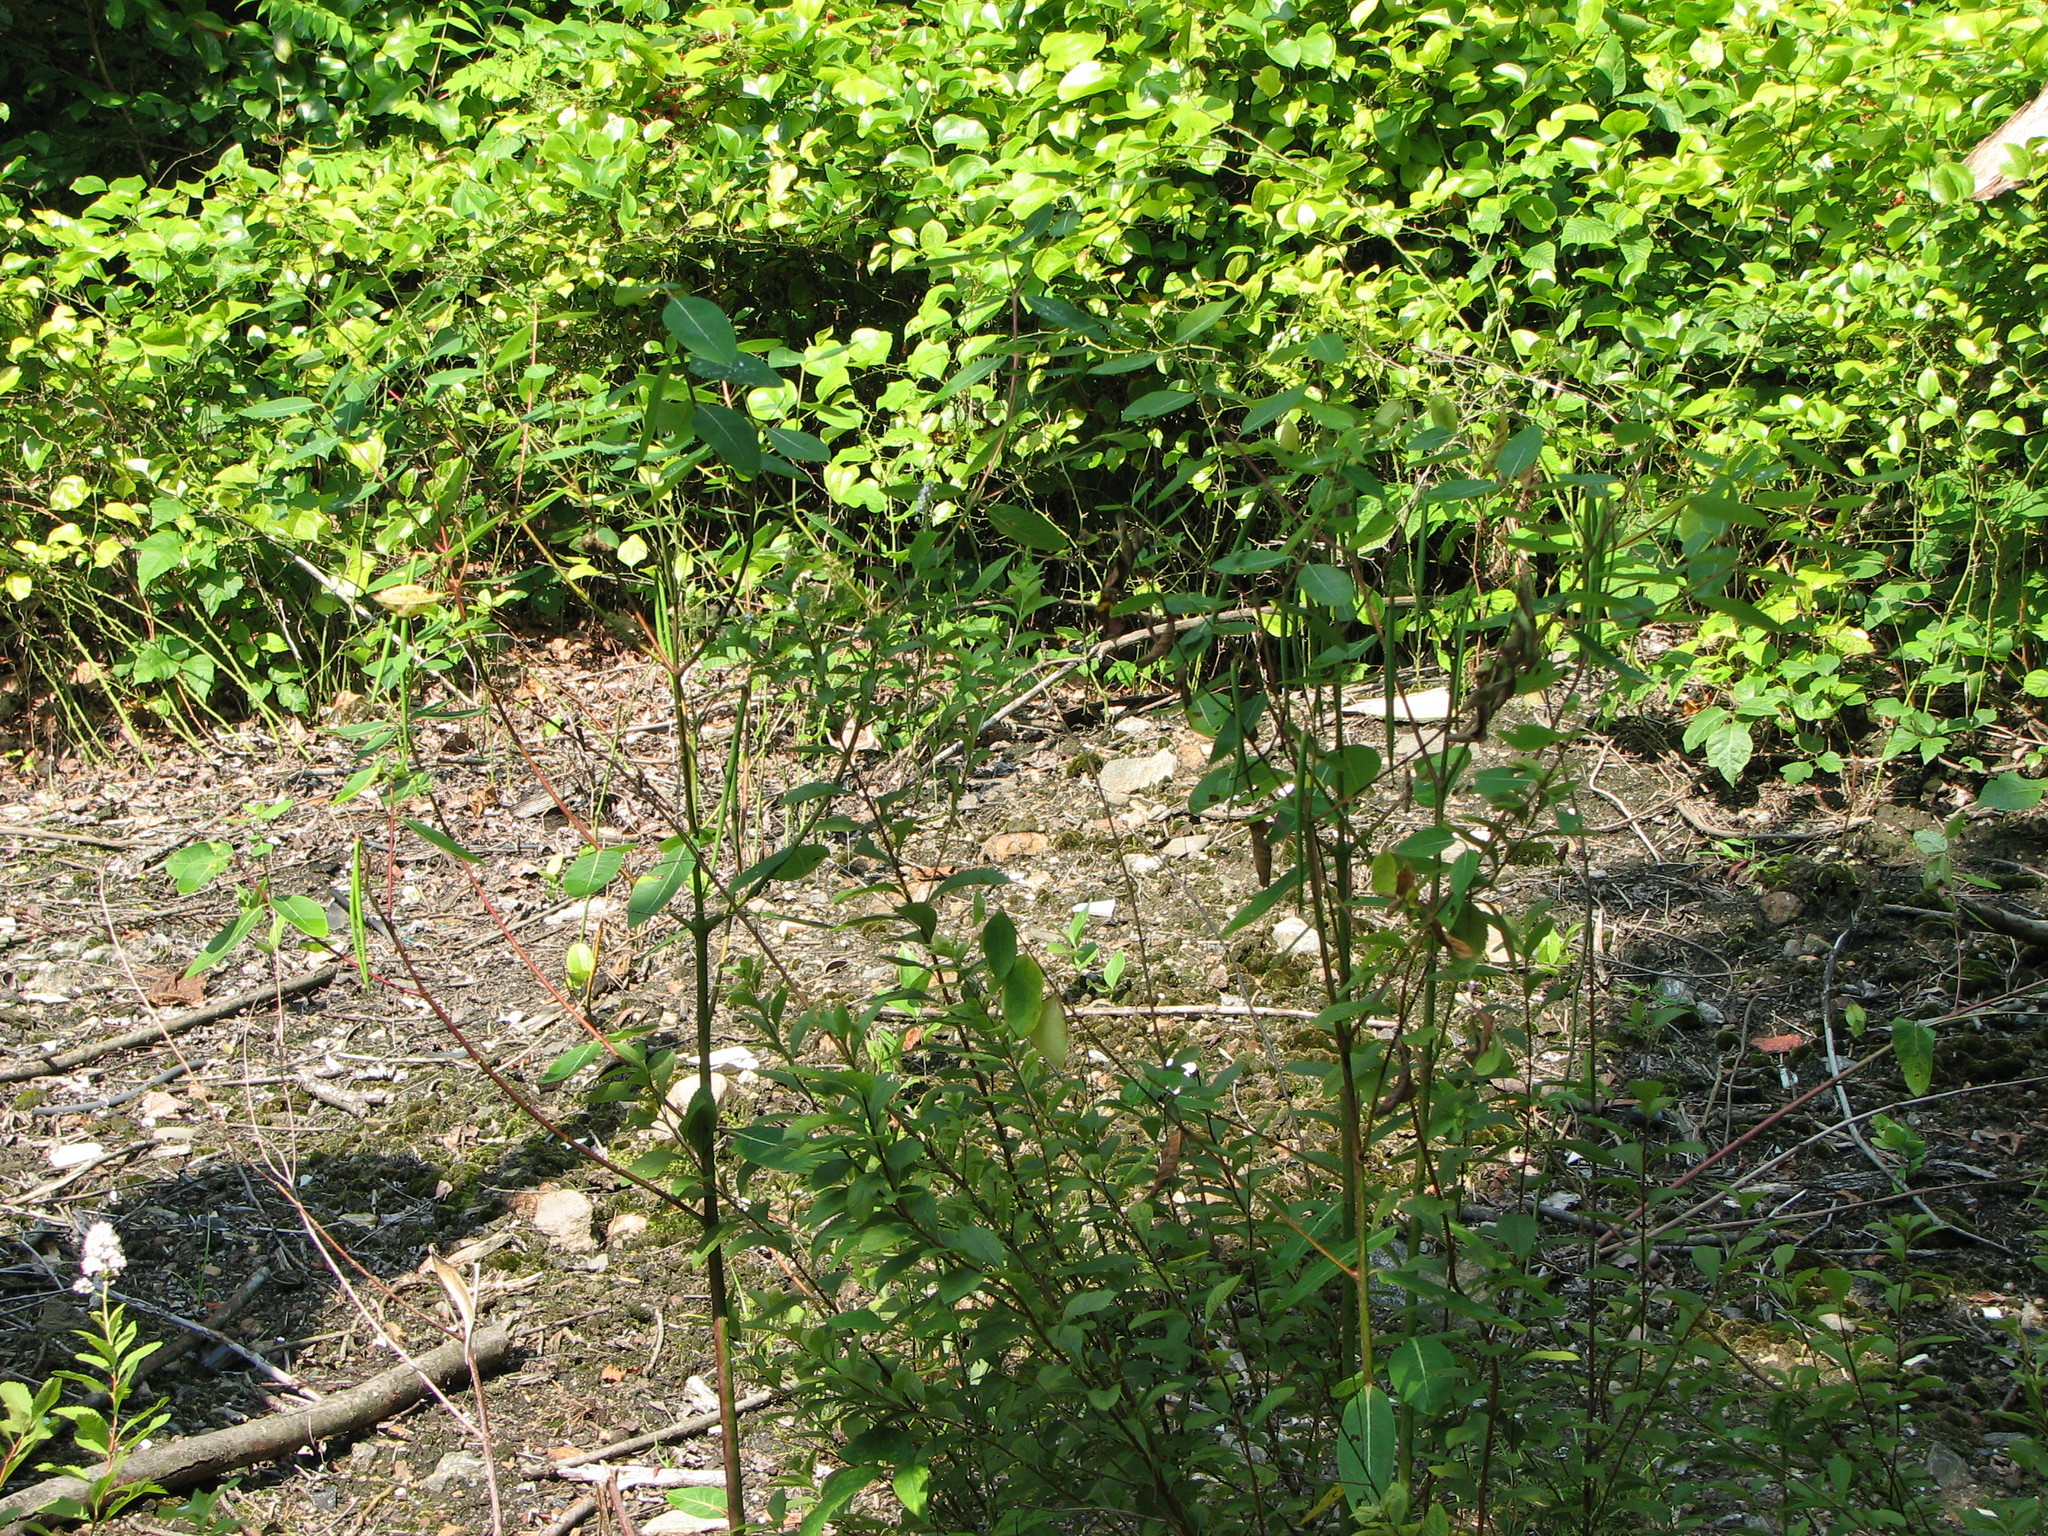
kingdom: Plantae
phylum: Tracheophyta
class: Magnoliopsida
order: Gentianales
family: Apocynaceae
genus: Apocynum
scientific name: Apocynum cannabinum
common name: Hemp dogbane
